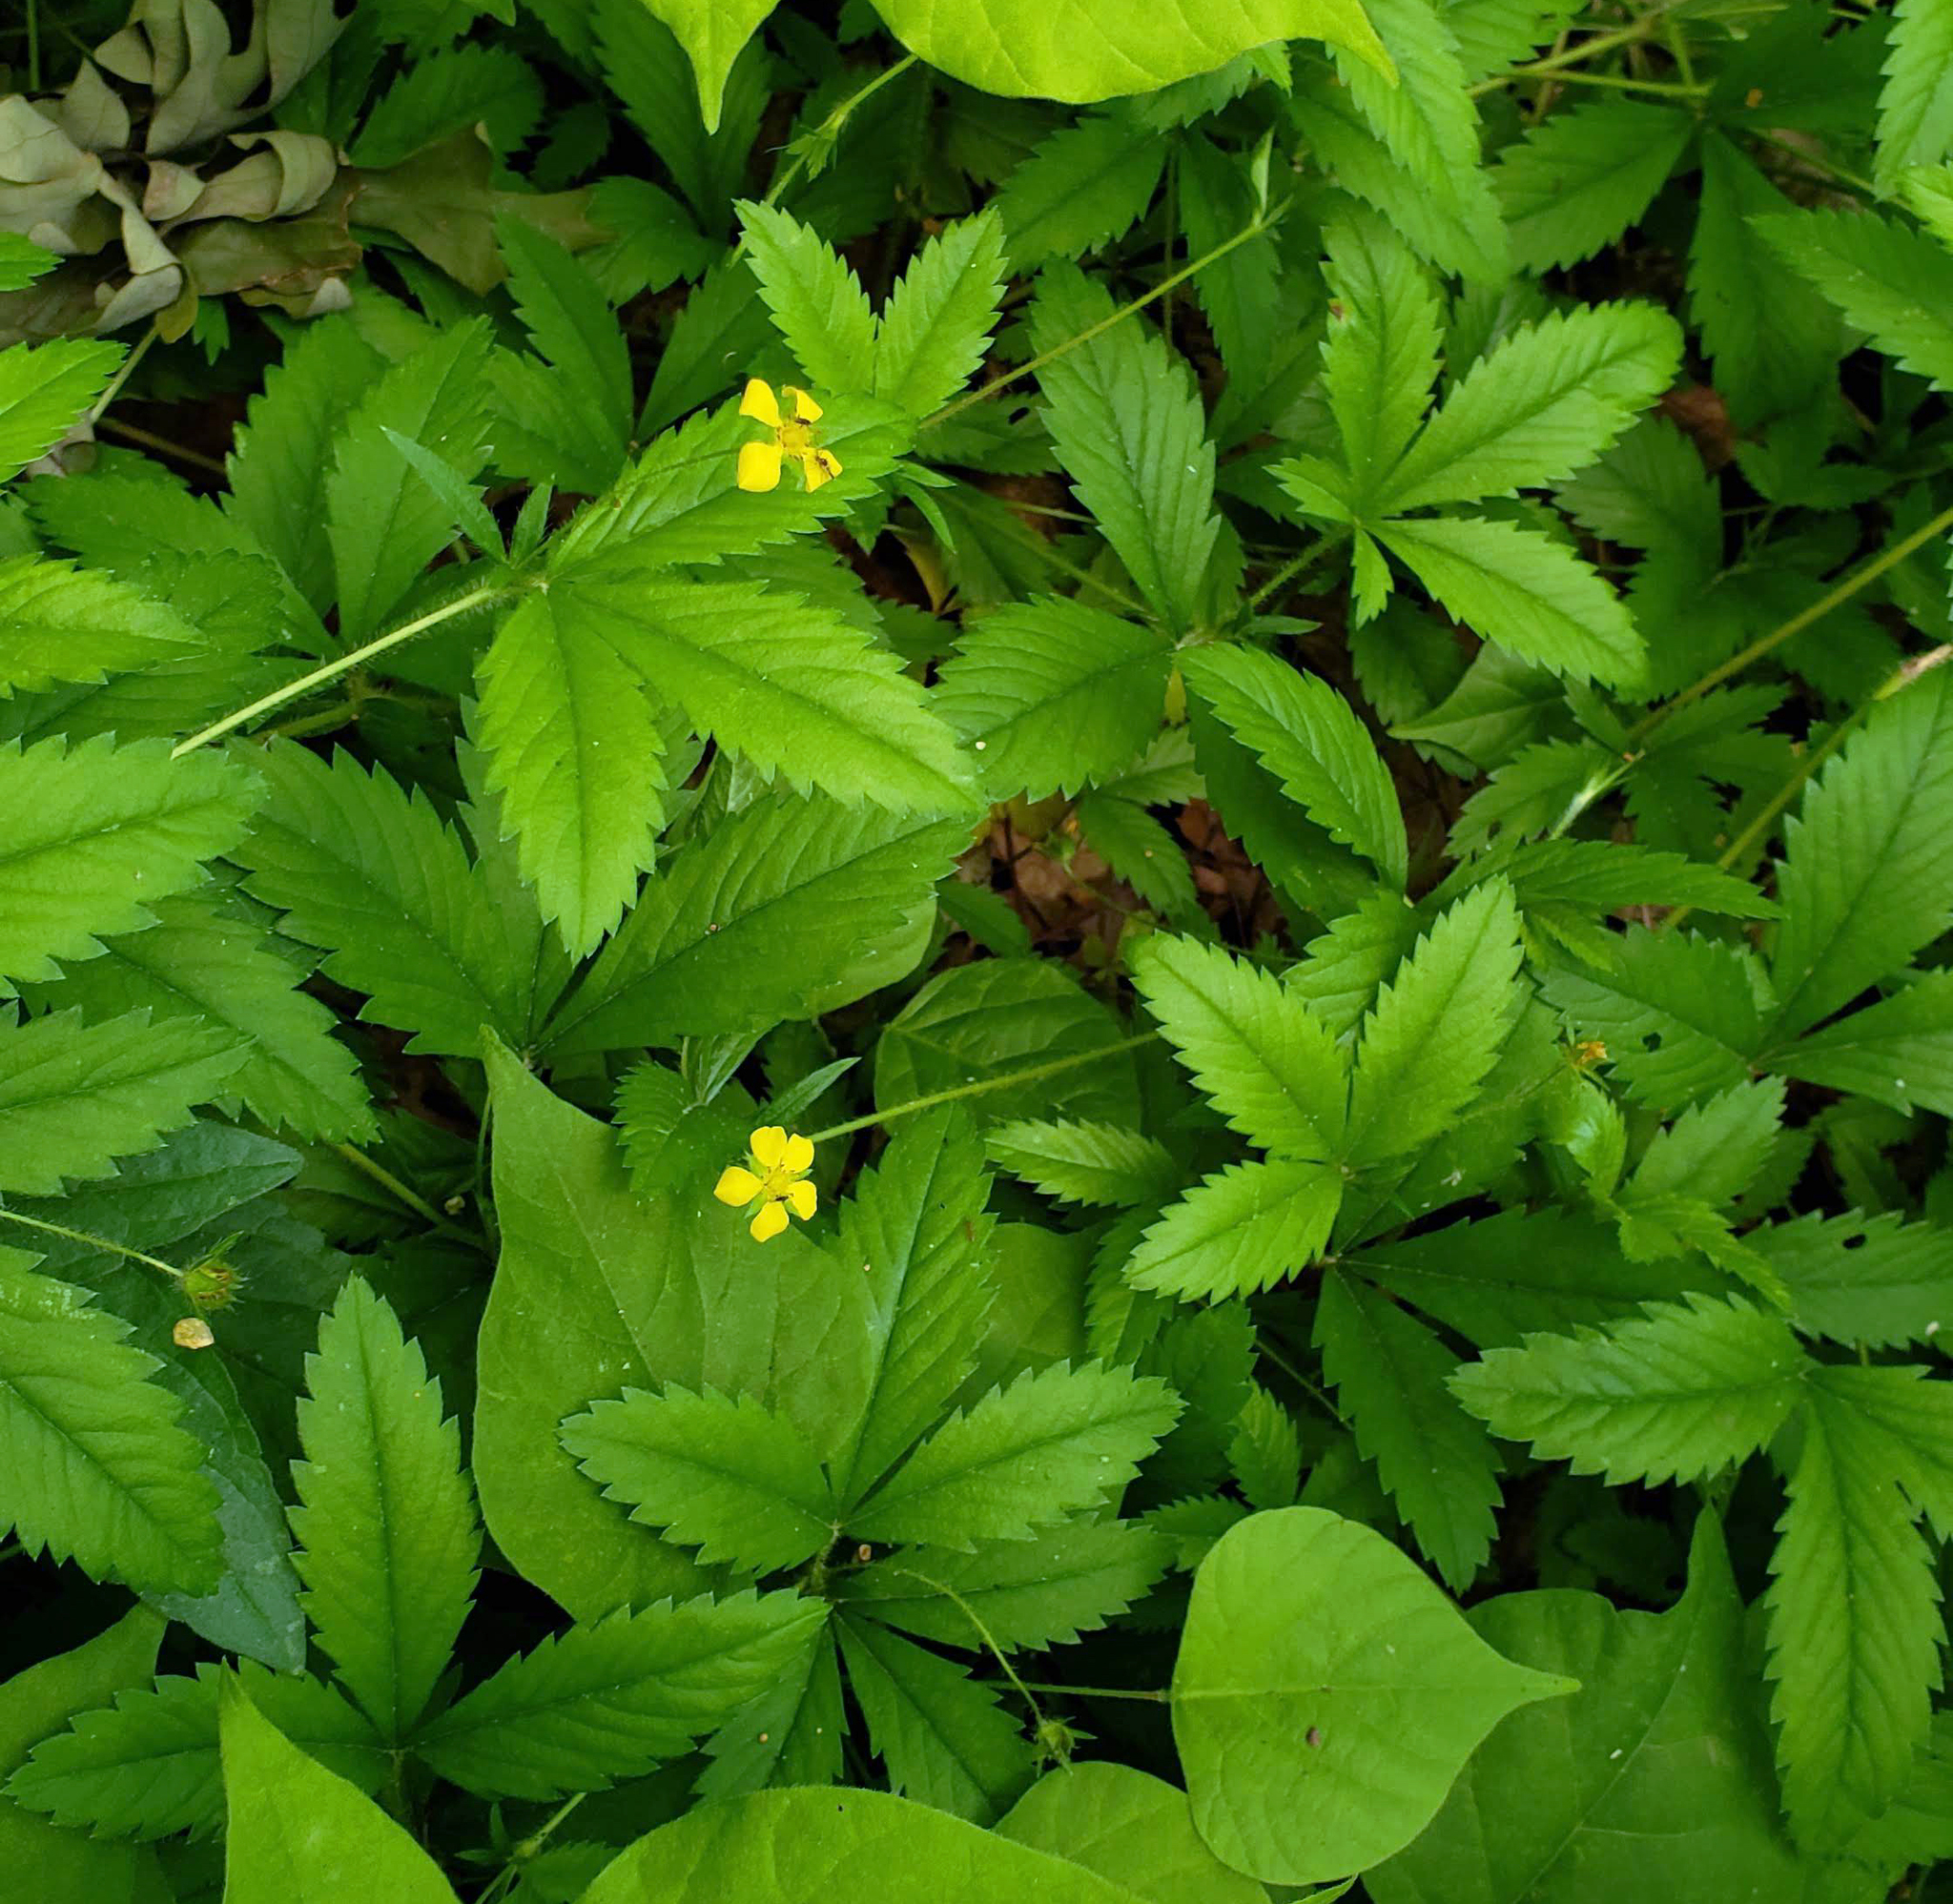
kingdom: Plantae
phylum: Tracheophyta
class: Magnoliopsida
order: Rosales
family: Rosaceae
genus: Potentilla
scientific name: Potentilla simplex
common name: Old field cinquefoil
